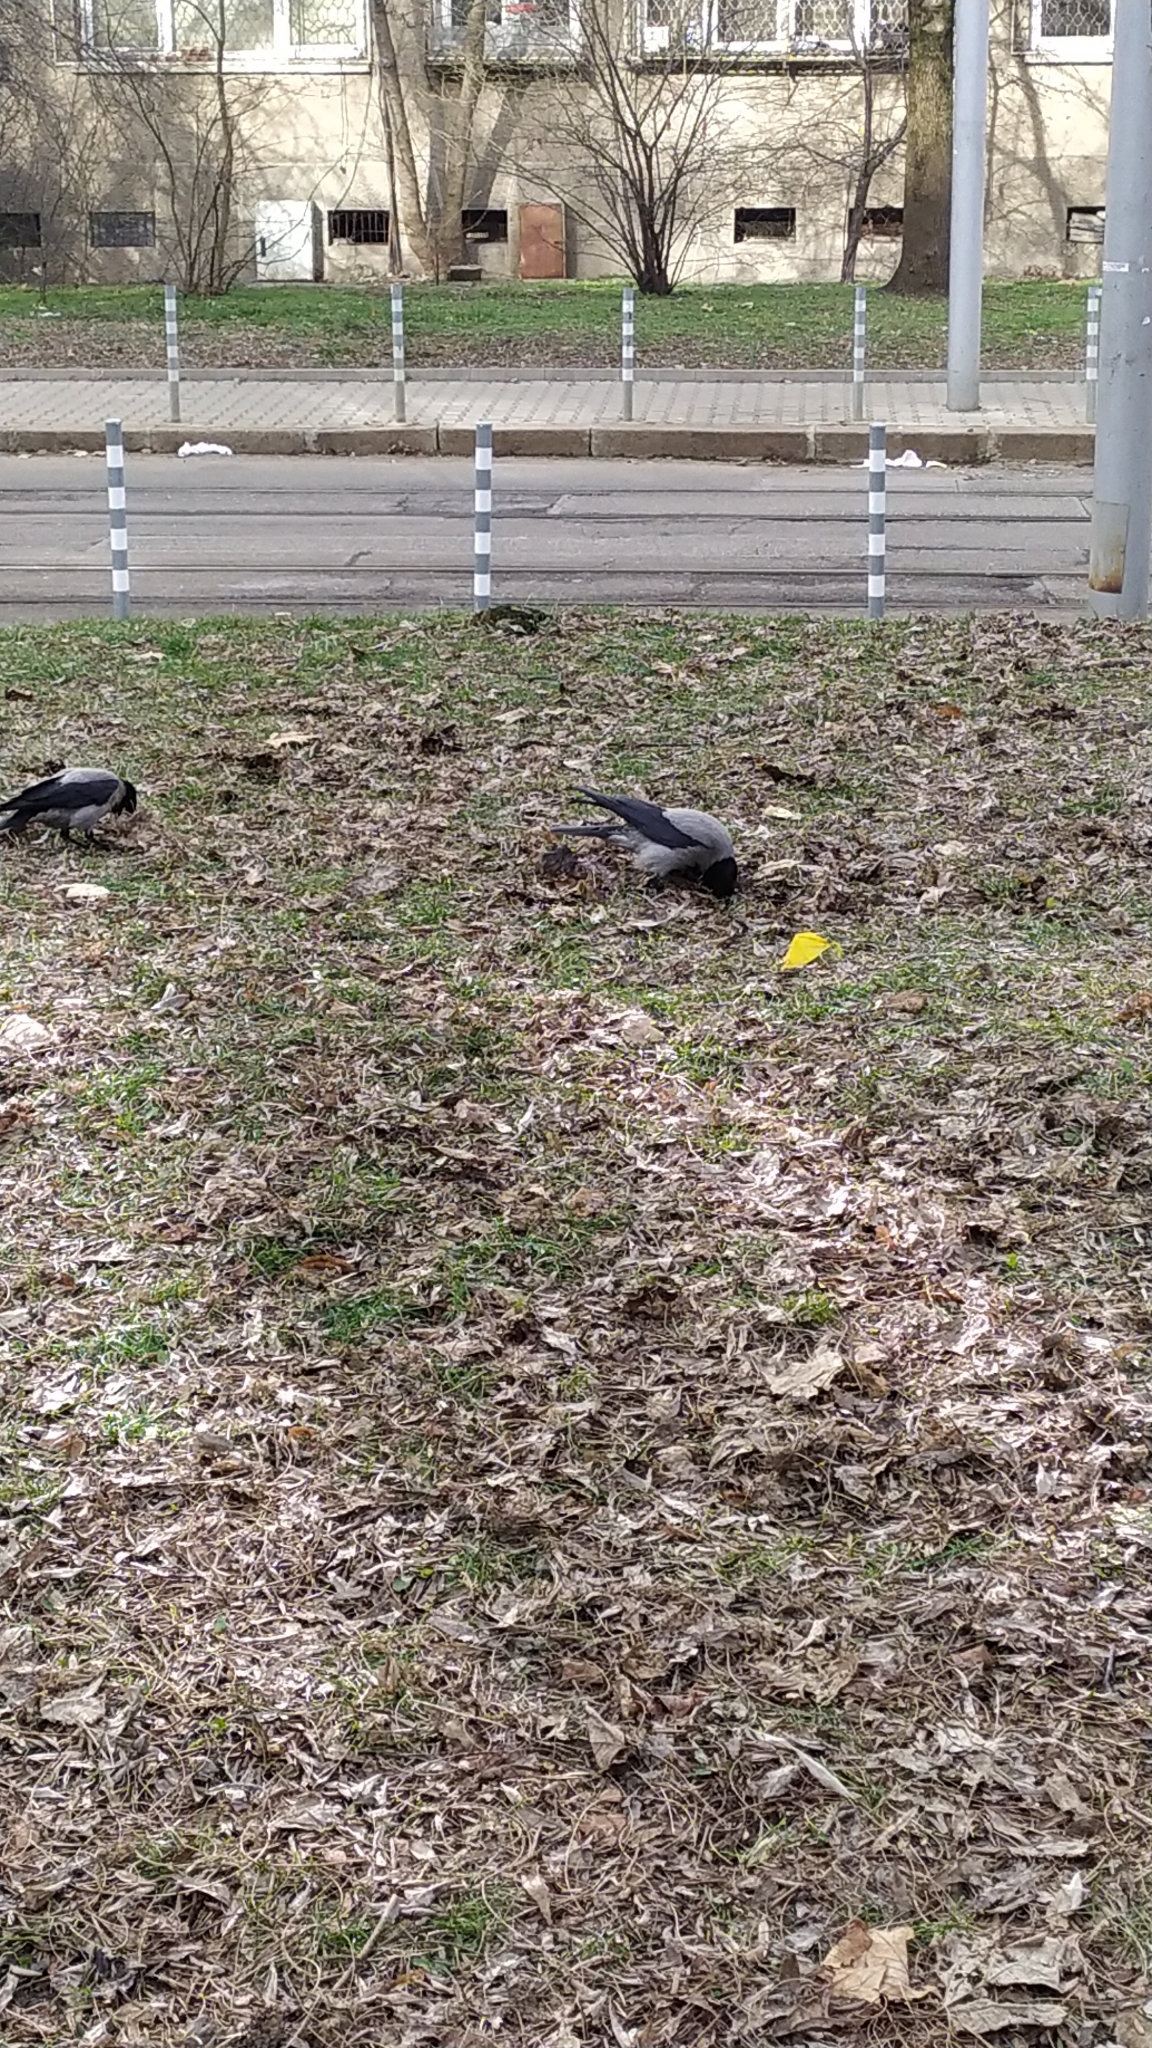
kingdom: Animalia
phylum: Chordata
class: Aves
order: Passeriformes
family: Corvidae
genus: Corvus
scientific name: Corvus cornix
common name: Hooded crow
